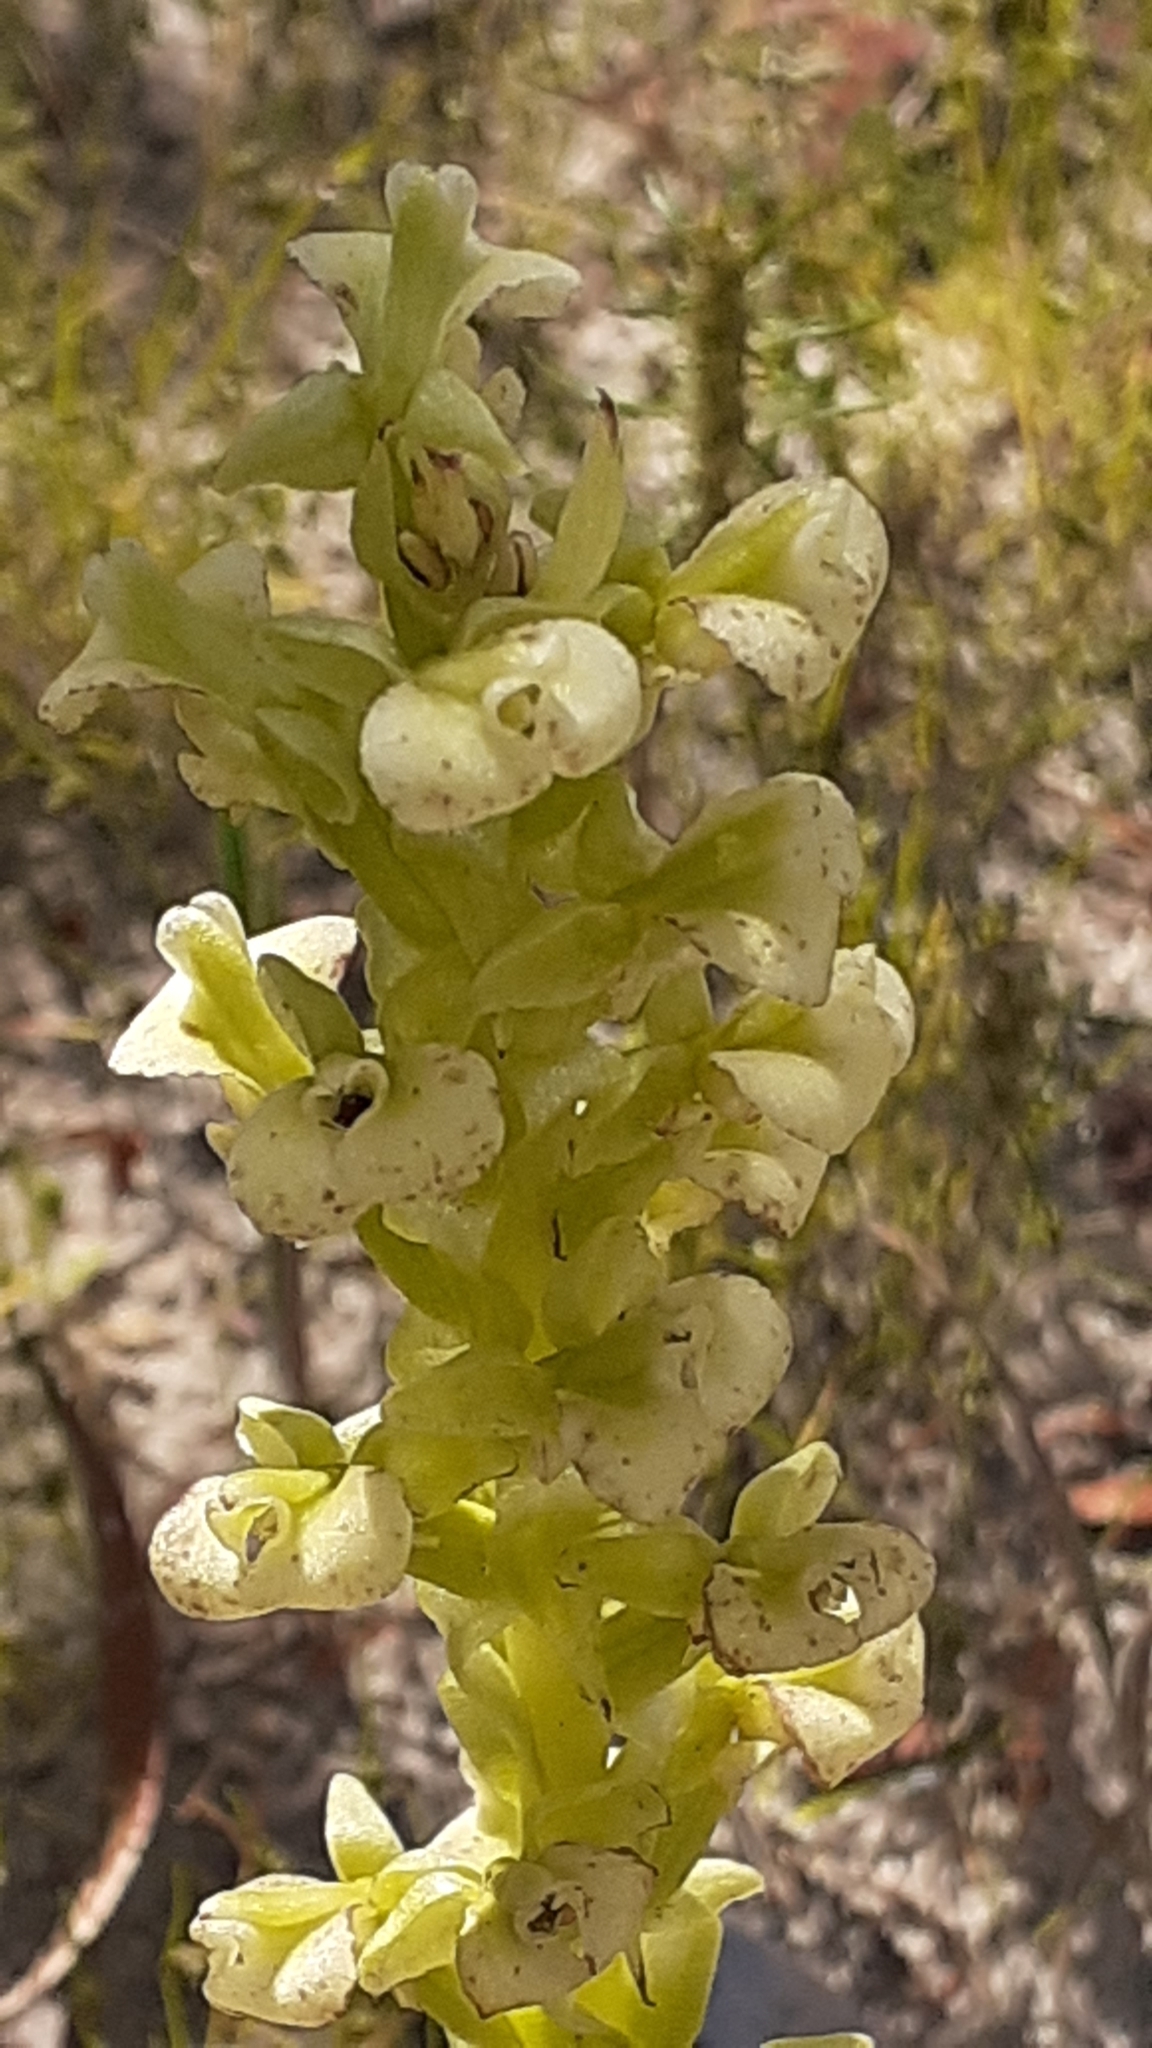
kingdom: Plantae
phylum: Tracheophyta
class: Liliopsida
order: Asparagales
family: Orchidaceae
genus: Pterygodium
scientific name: Pterygodium volucris
